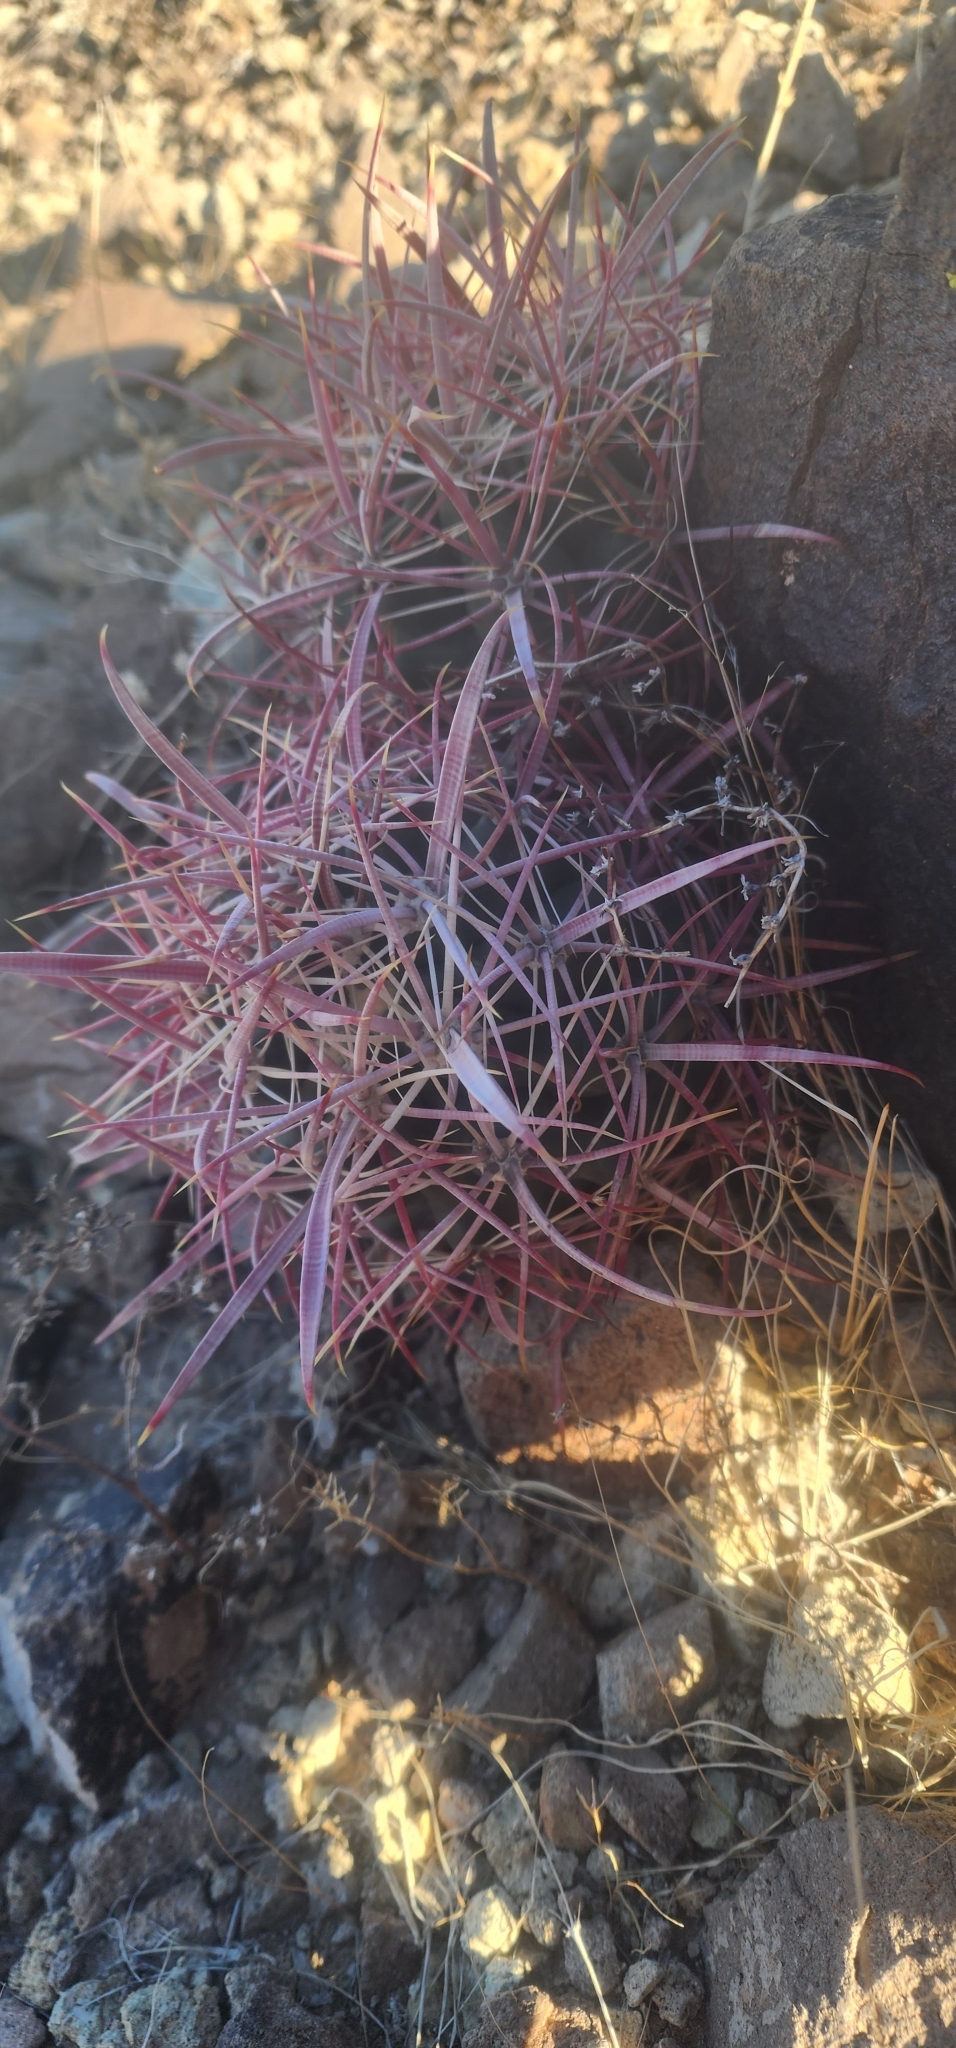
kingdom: Plantae
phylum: Tracheophyta
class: Magnoliopsida
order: Caryophyllales
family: Cactaceae
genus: Ferocactus
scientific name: Ferocactus cylindraceus
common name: California barrel cactus
